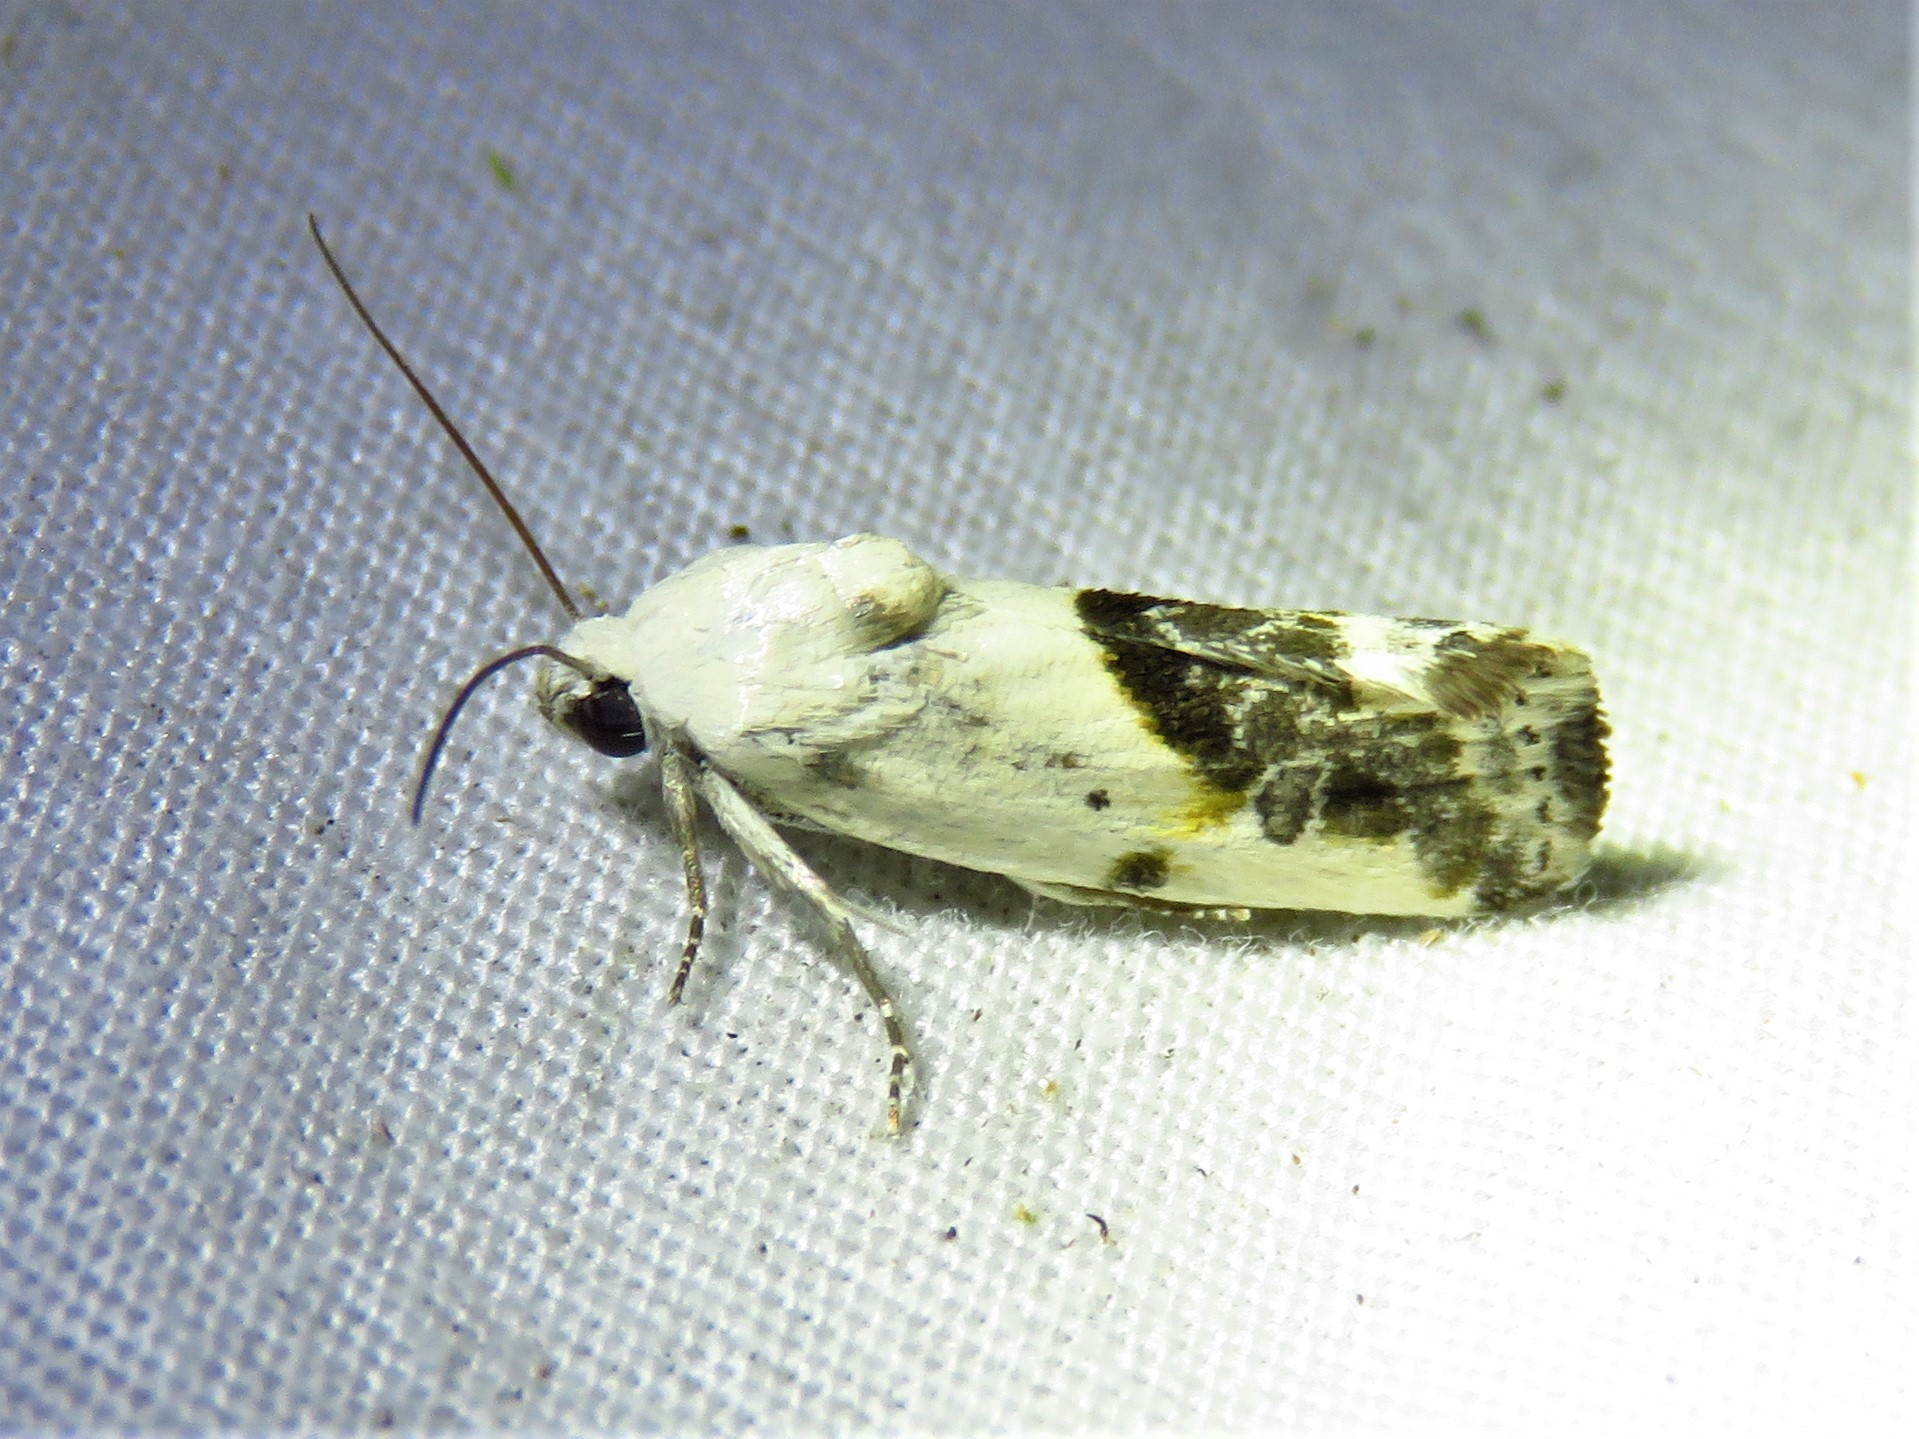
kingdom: Animalia
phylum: Arthropoda
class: Insecta
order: Lepidoptera
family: Noctuidae
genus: Acontia
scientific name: Acontia candefacta
